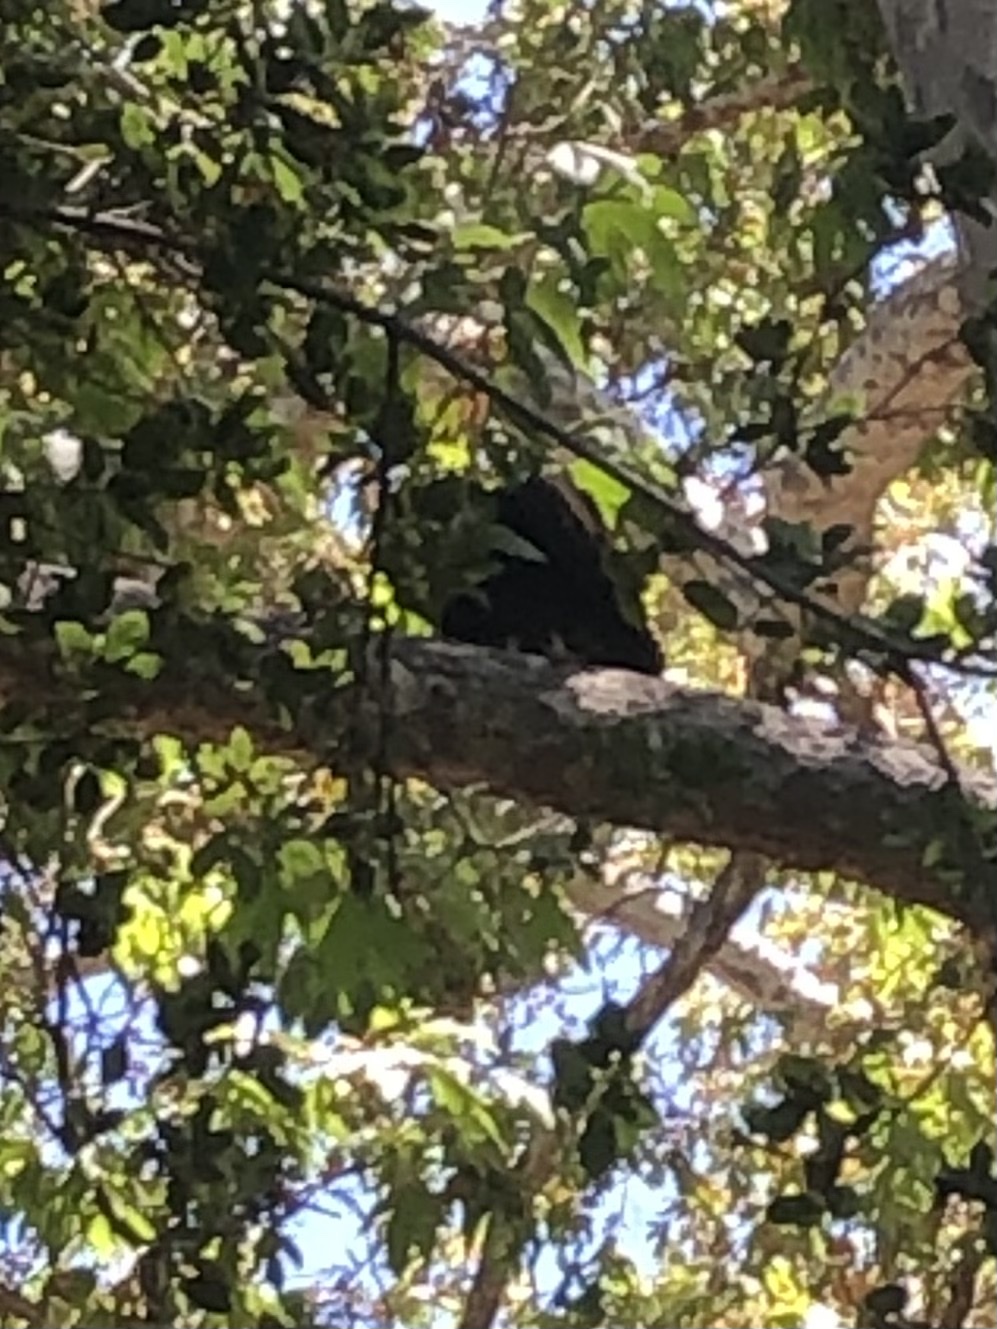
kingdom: Animalia
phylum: Chordata
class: Aves
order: Accipitriformes
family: Cathartidae
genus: Cathartes
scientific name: Cathartes aura
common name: Turkey vulture
